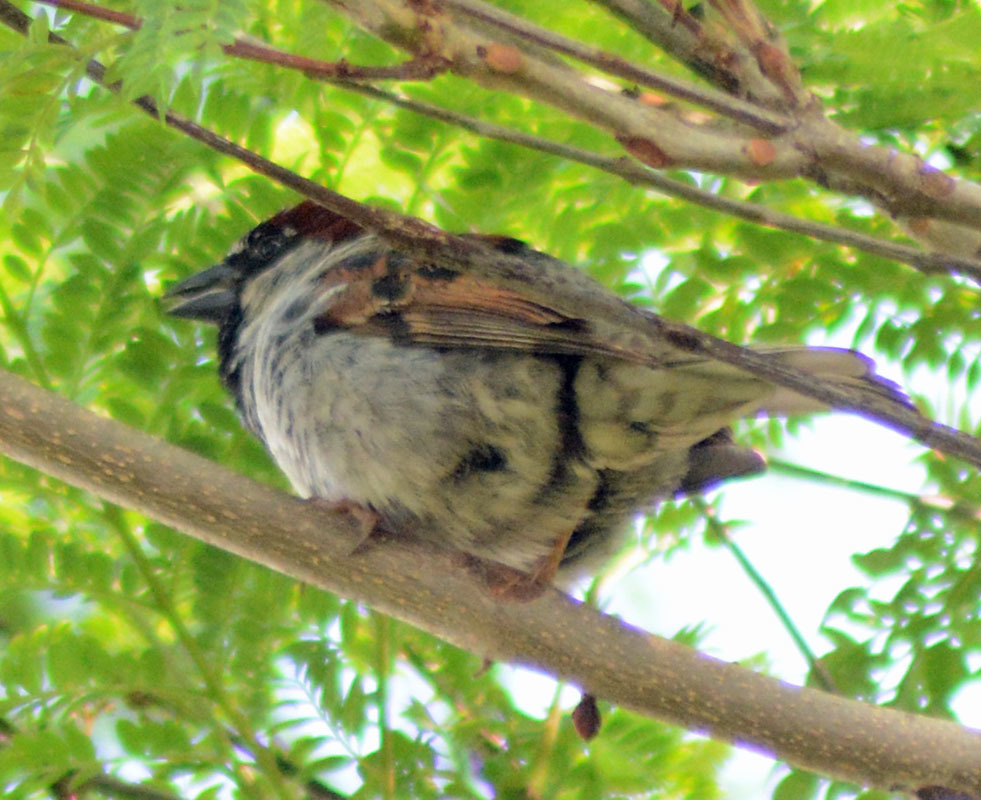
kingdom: Animalia
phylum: Chordata
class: Aves
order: Passeriformes
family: Passeridae
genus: Passer
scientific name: Passer domesticus
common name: House sparrow
